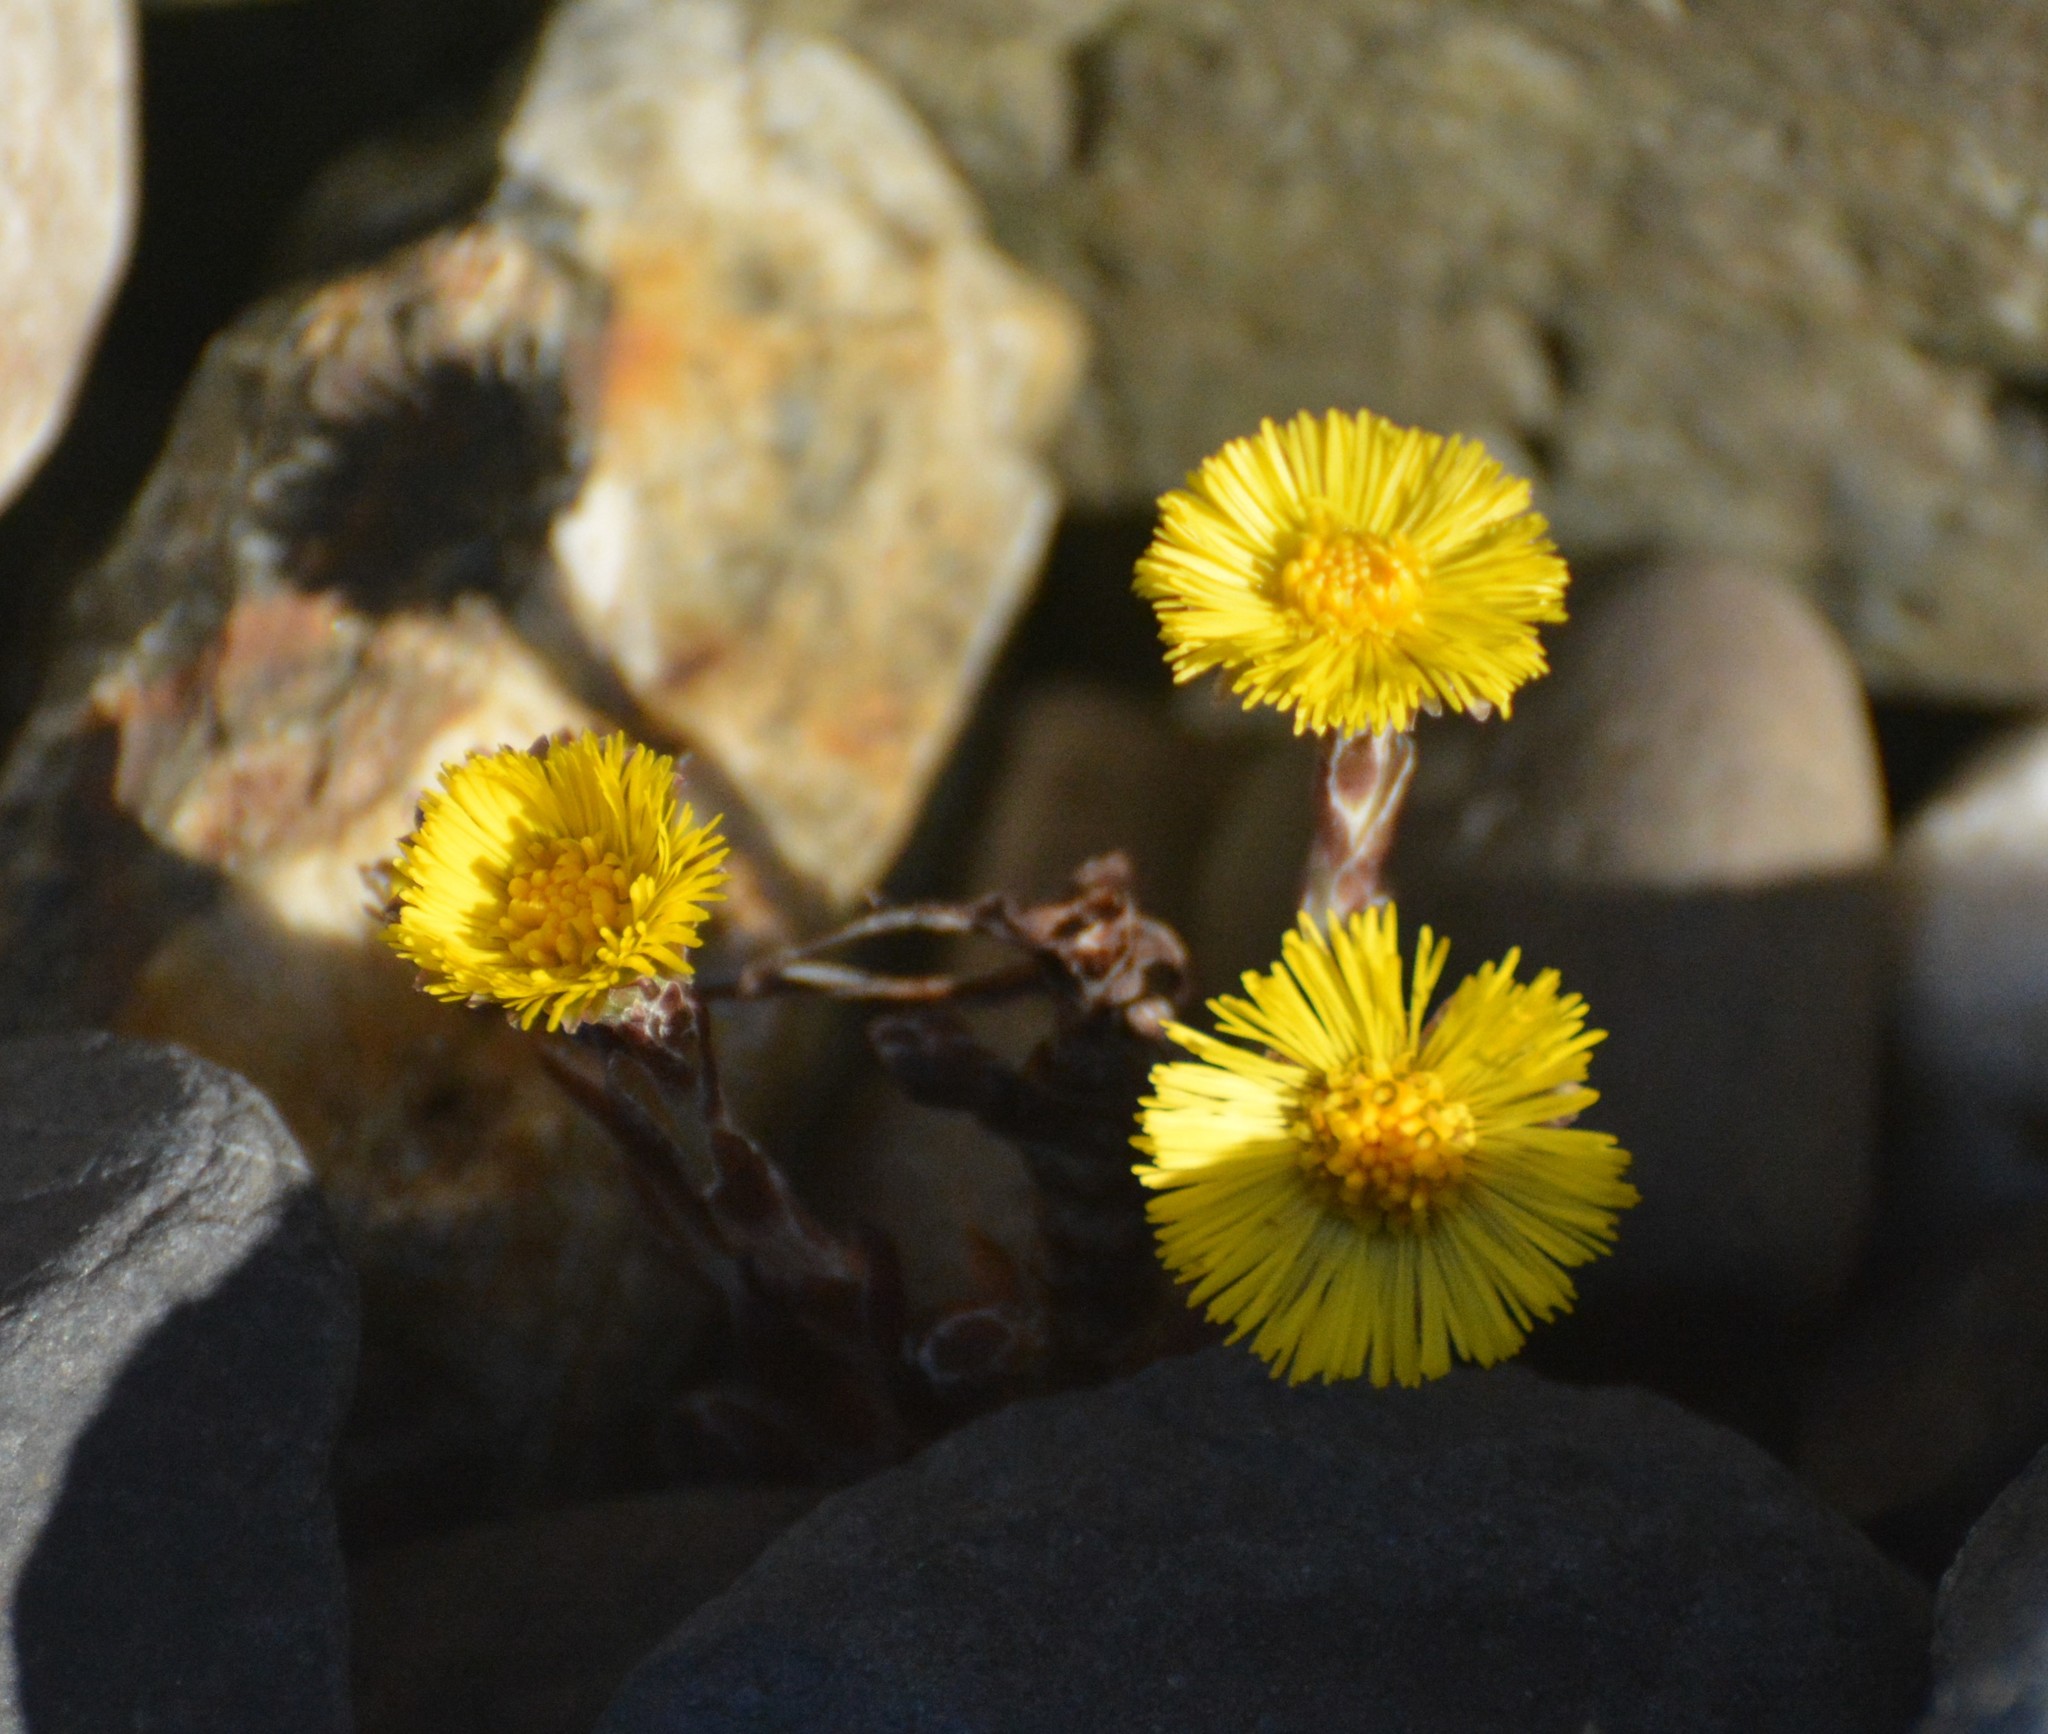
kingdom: Plantae
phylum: Tracheophyta
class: Magnoliopsida
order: Asterales
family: Asteraceae
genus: Tussilago
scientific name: Tussilago farfara
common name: Coltsfoot
